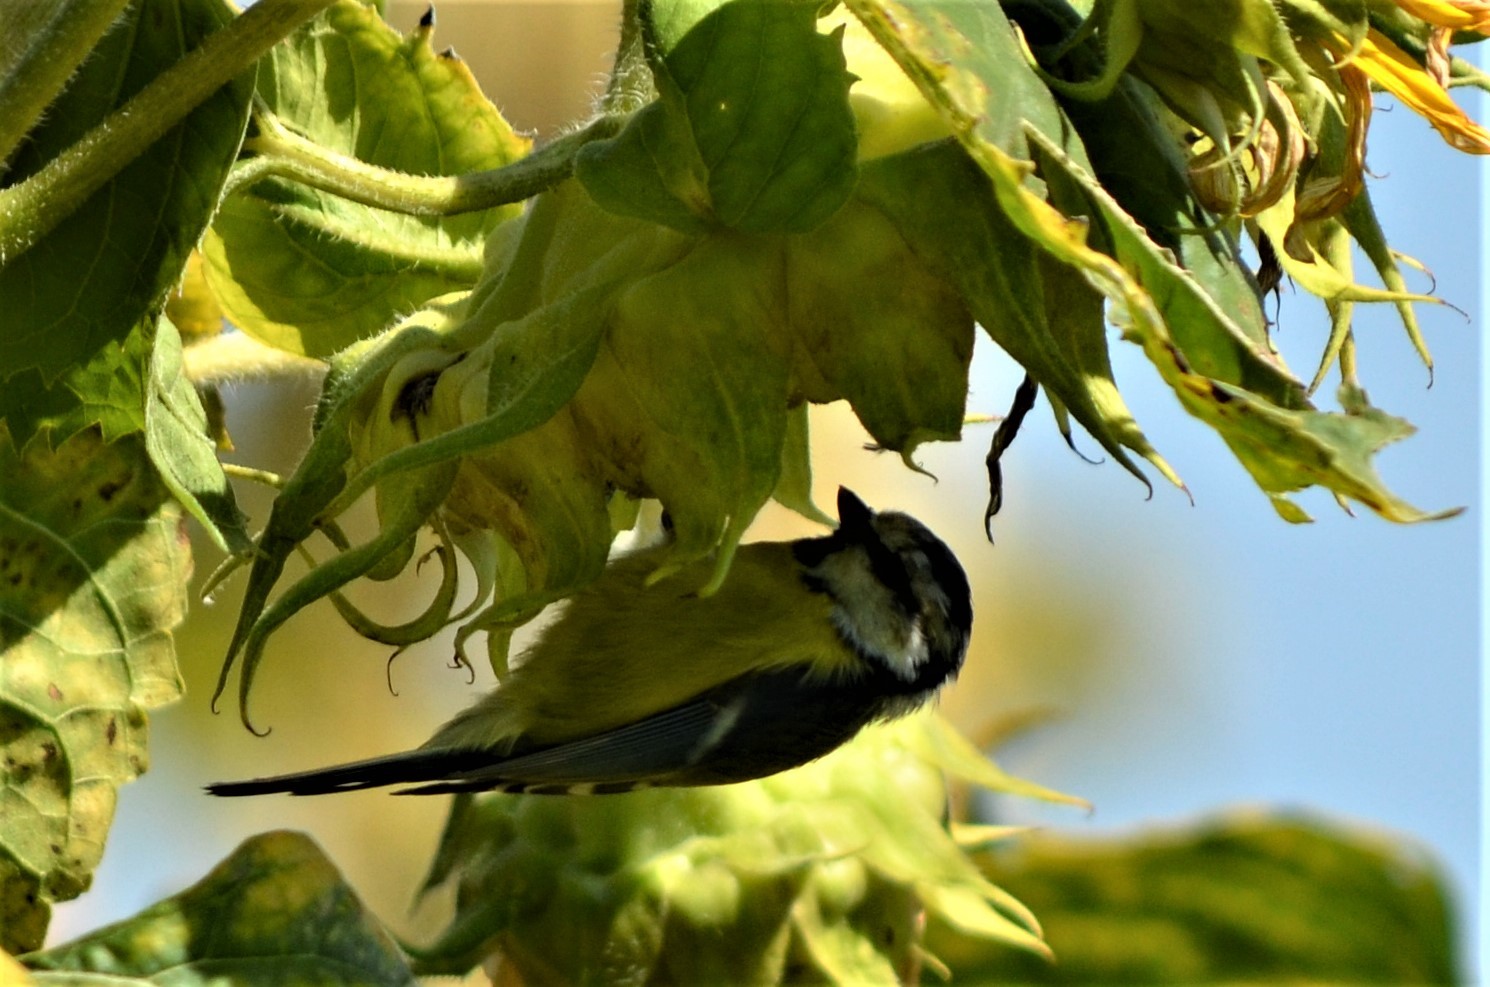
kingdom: Animalia
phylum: Chordata
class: Aves
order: Passeriformes
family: Paridae
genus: Cyanistes
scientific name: Cyanistes caeruleus
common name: Eurasian blue tit
